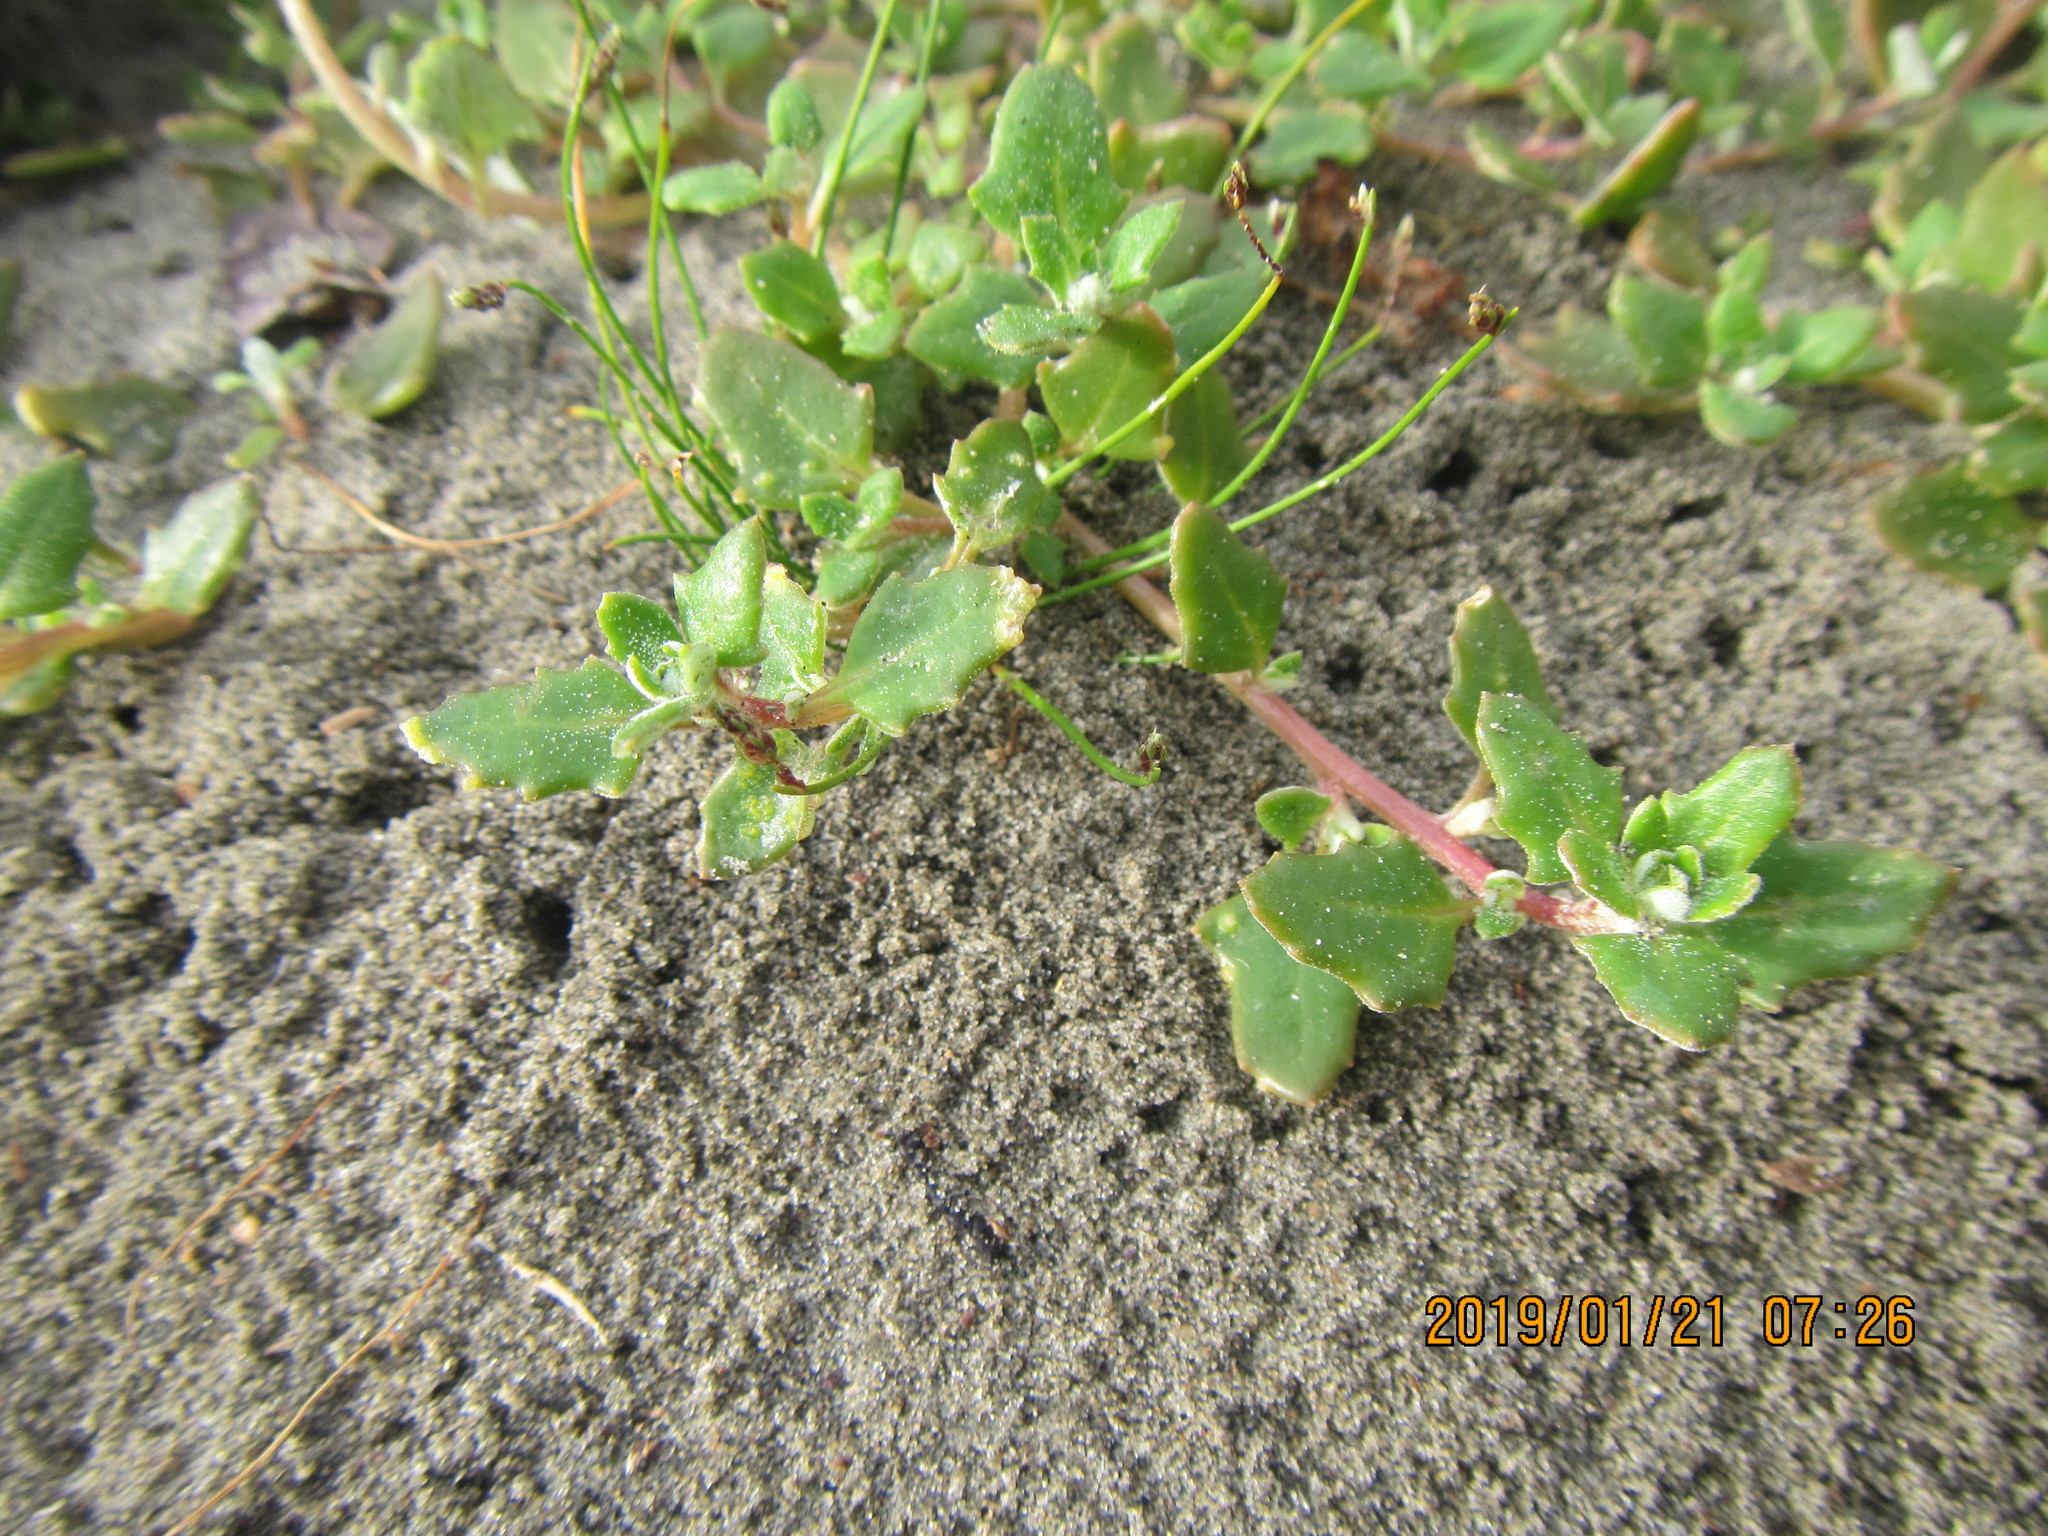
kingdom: Plantae
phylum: Tracheophyta
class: Magnoliopsida
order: Caryophyllales
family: Amaranthaceae
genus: Oxybasis
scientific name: Oxybasis ambigua
